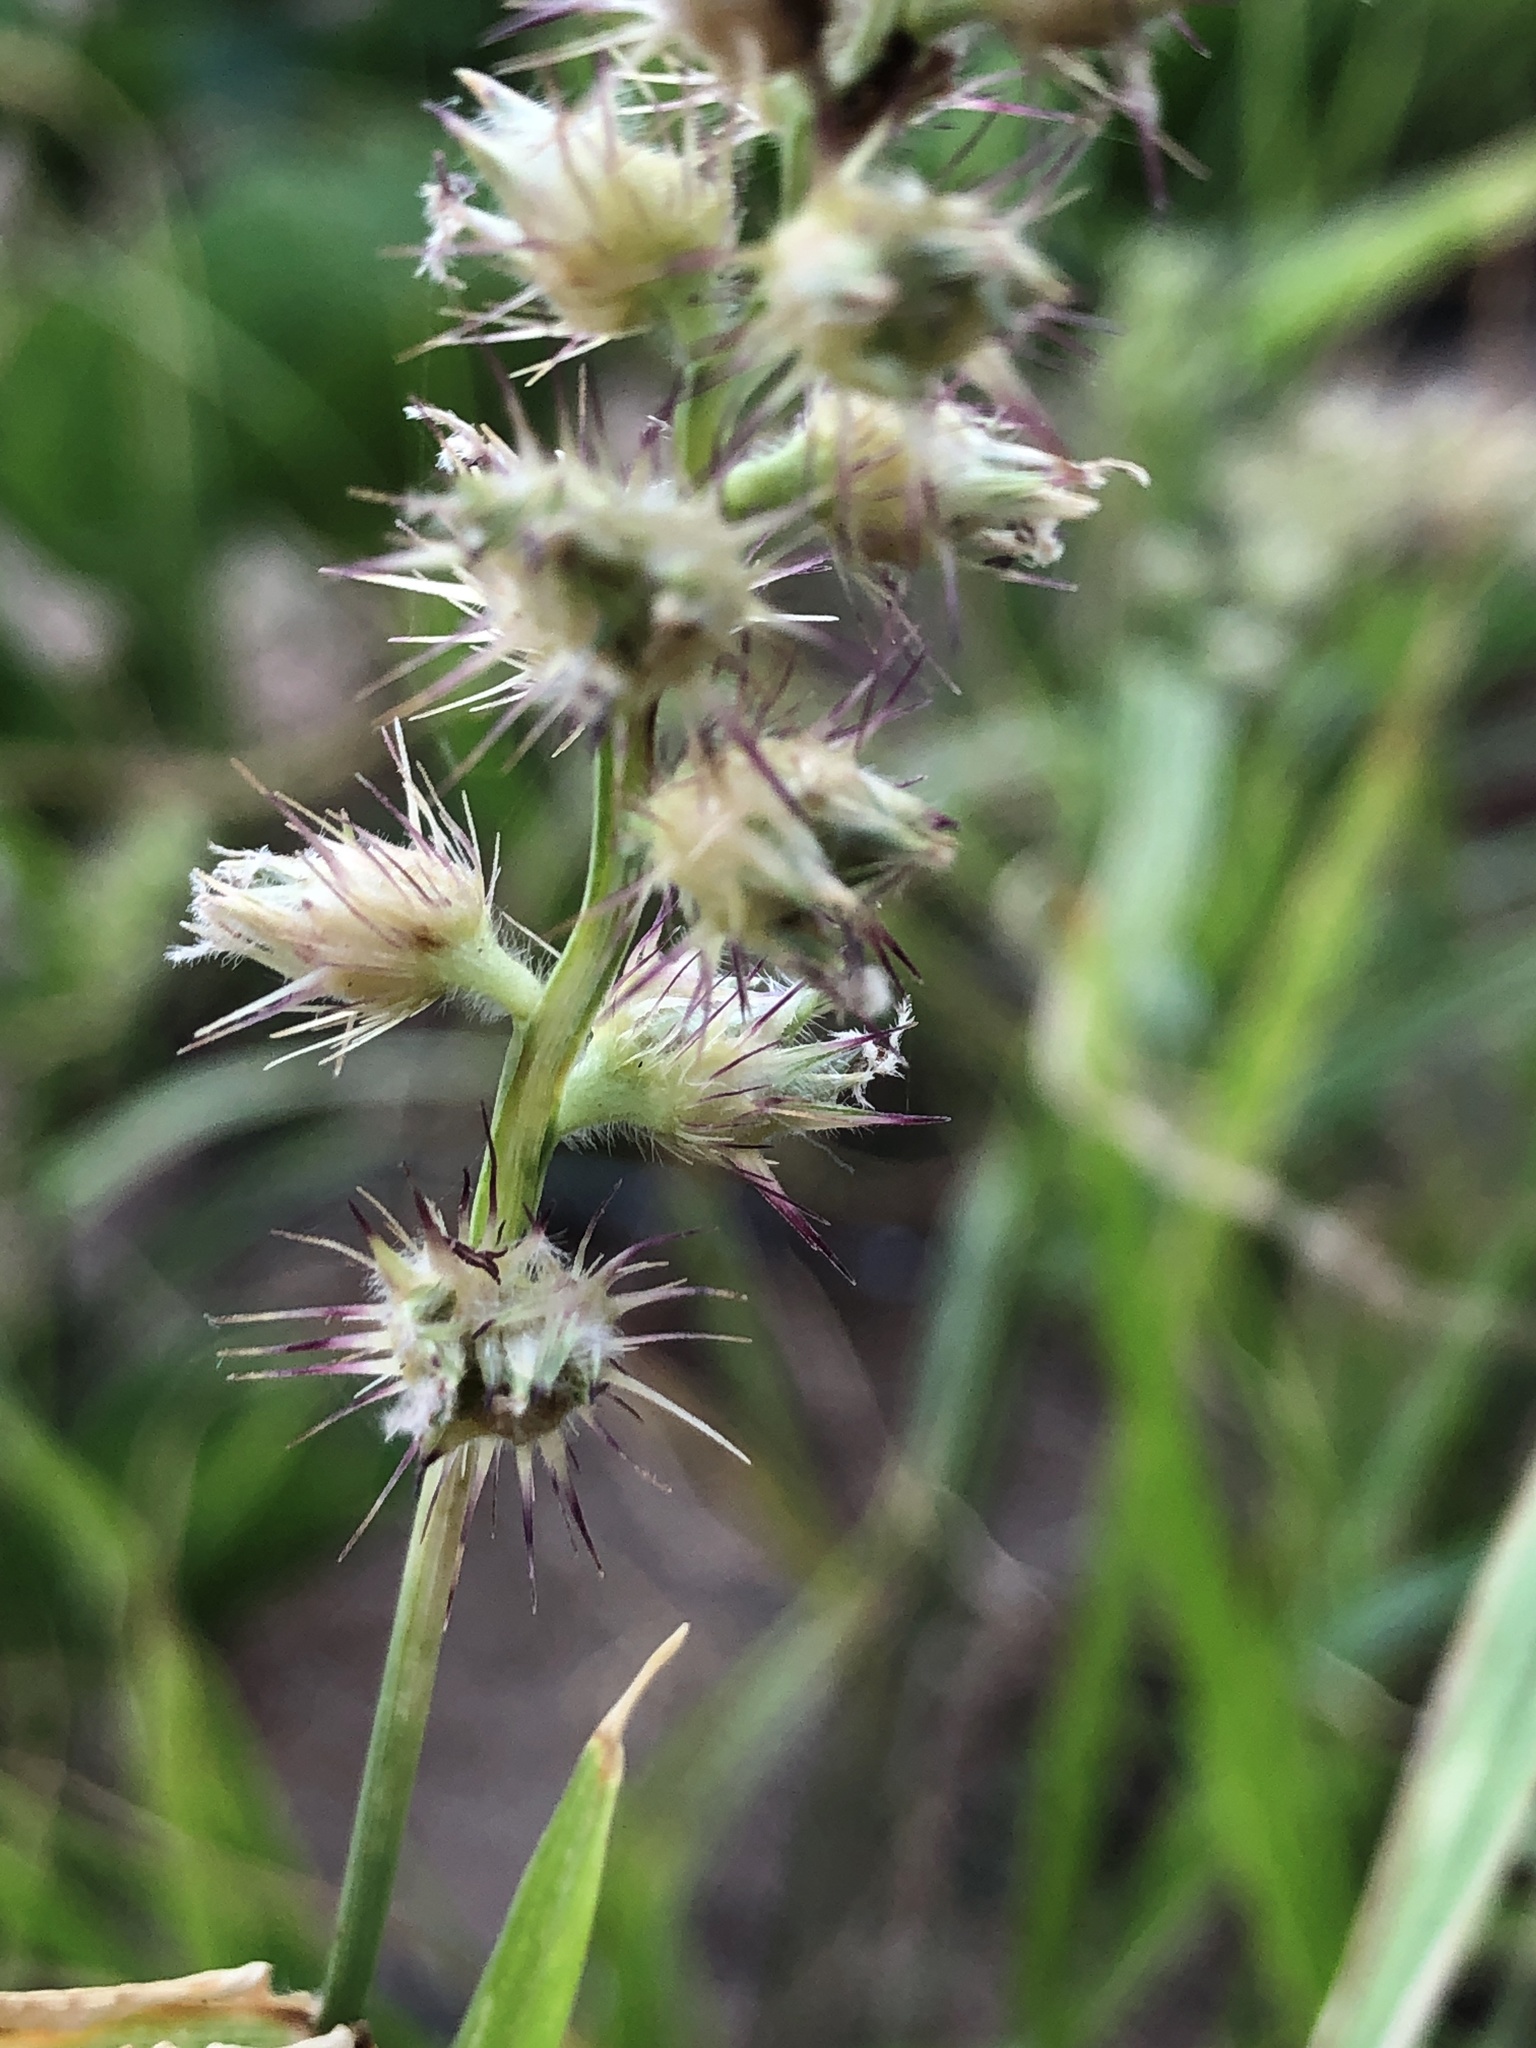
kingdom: Plantae
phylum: Tracheophyta
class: Liliopsida
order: Poales
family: Poaceae
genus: Cenchrus
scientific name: Cenchrus echinatus
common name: Southern sandbur
